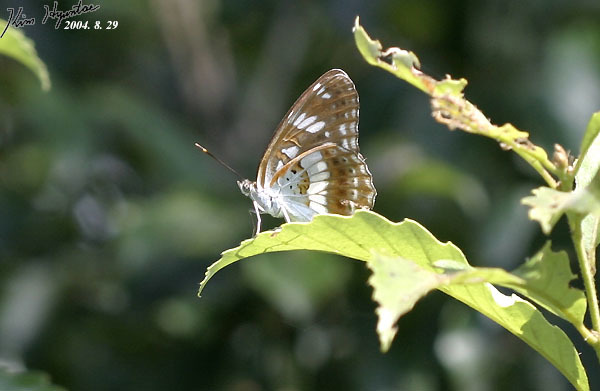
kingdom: Animalia
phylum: Arthropoda
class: Insecta
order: Lepidoptera
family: Nymphalidae
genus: Limenitis
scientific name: Limenitis doerriesi
